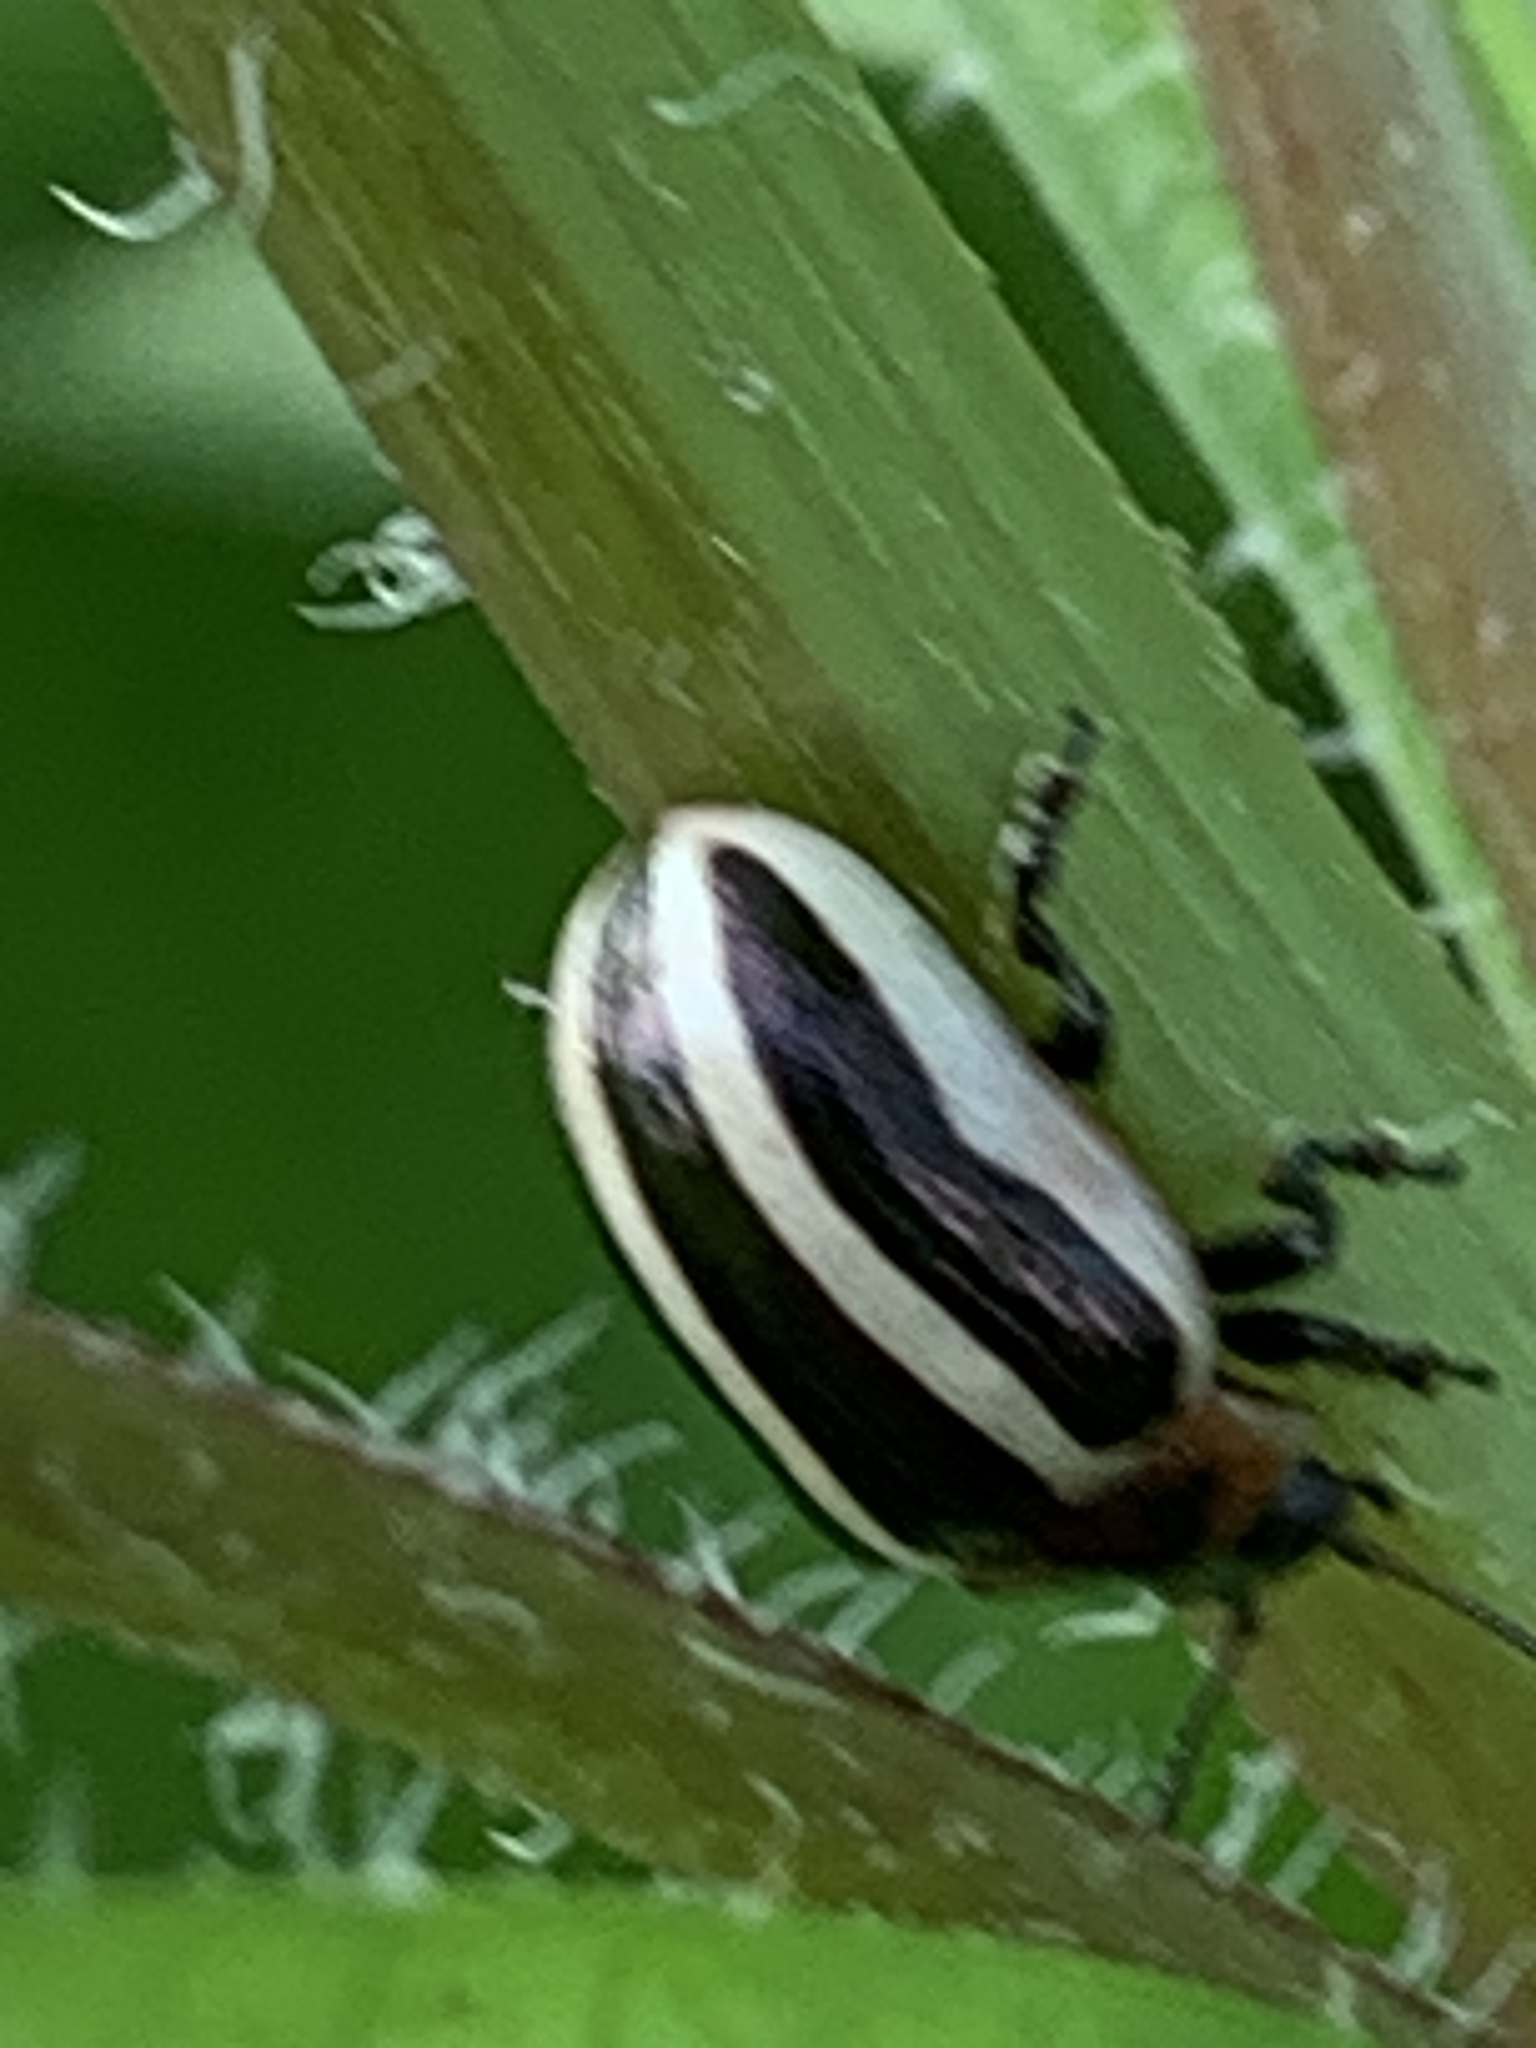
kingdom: Animalia
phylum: Arthropoda
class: Insecta
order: Coleoptera
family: Chrysomelidae
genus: Calligrapha
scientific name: Calligrapha californica
